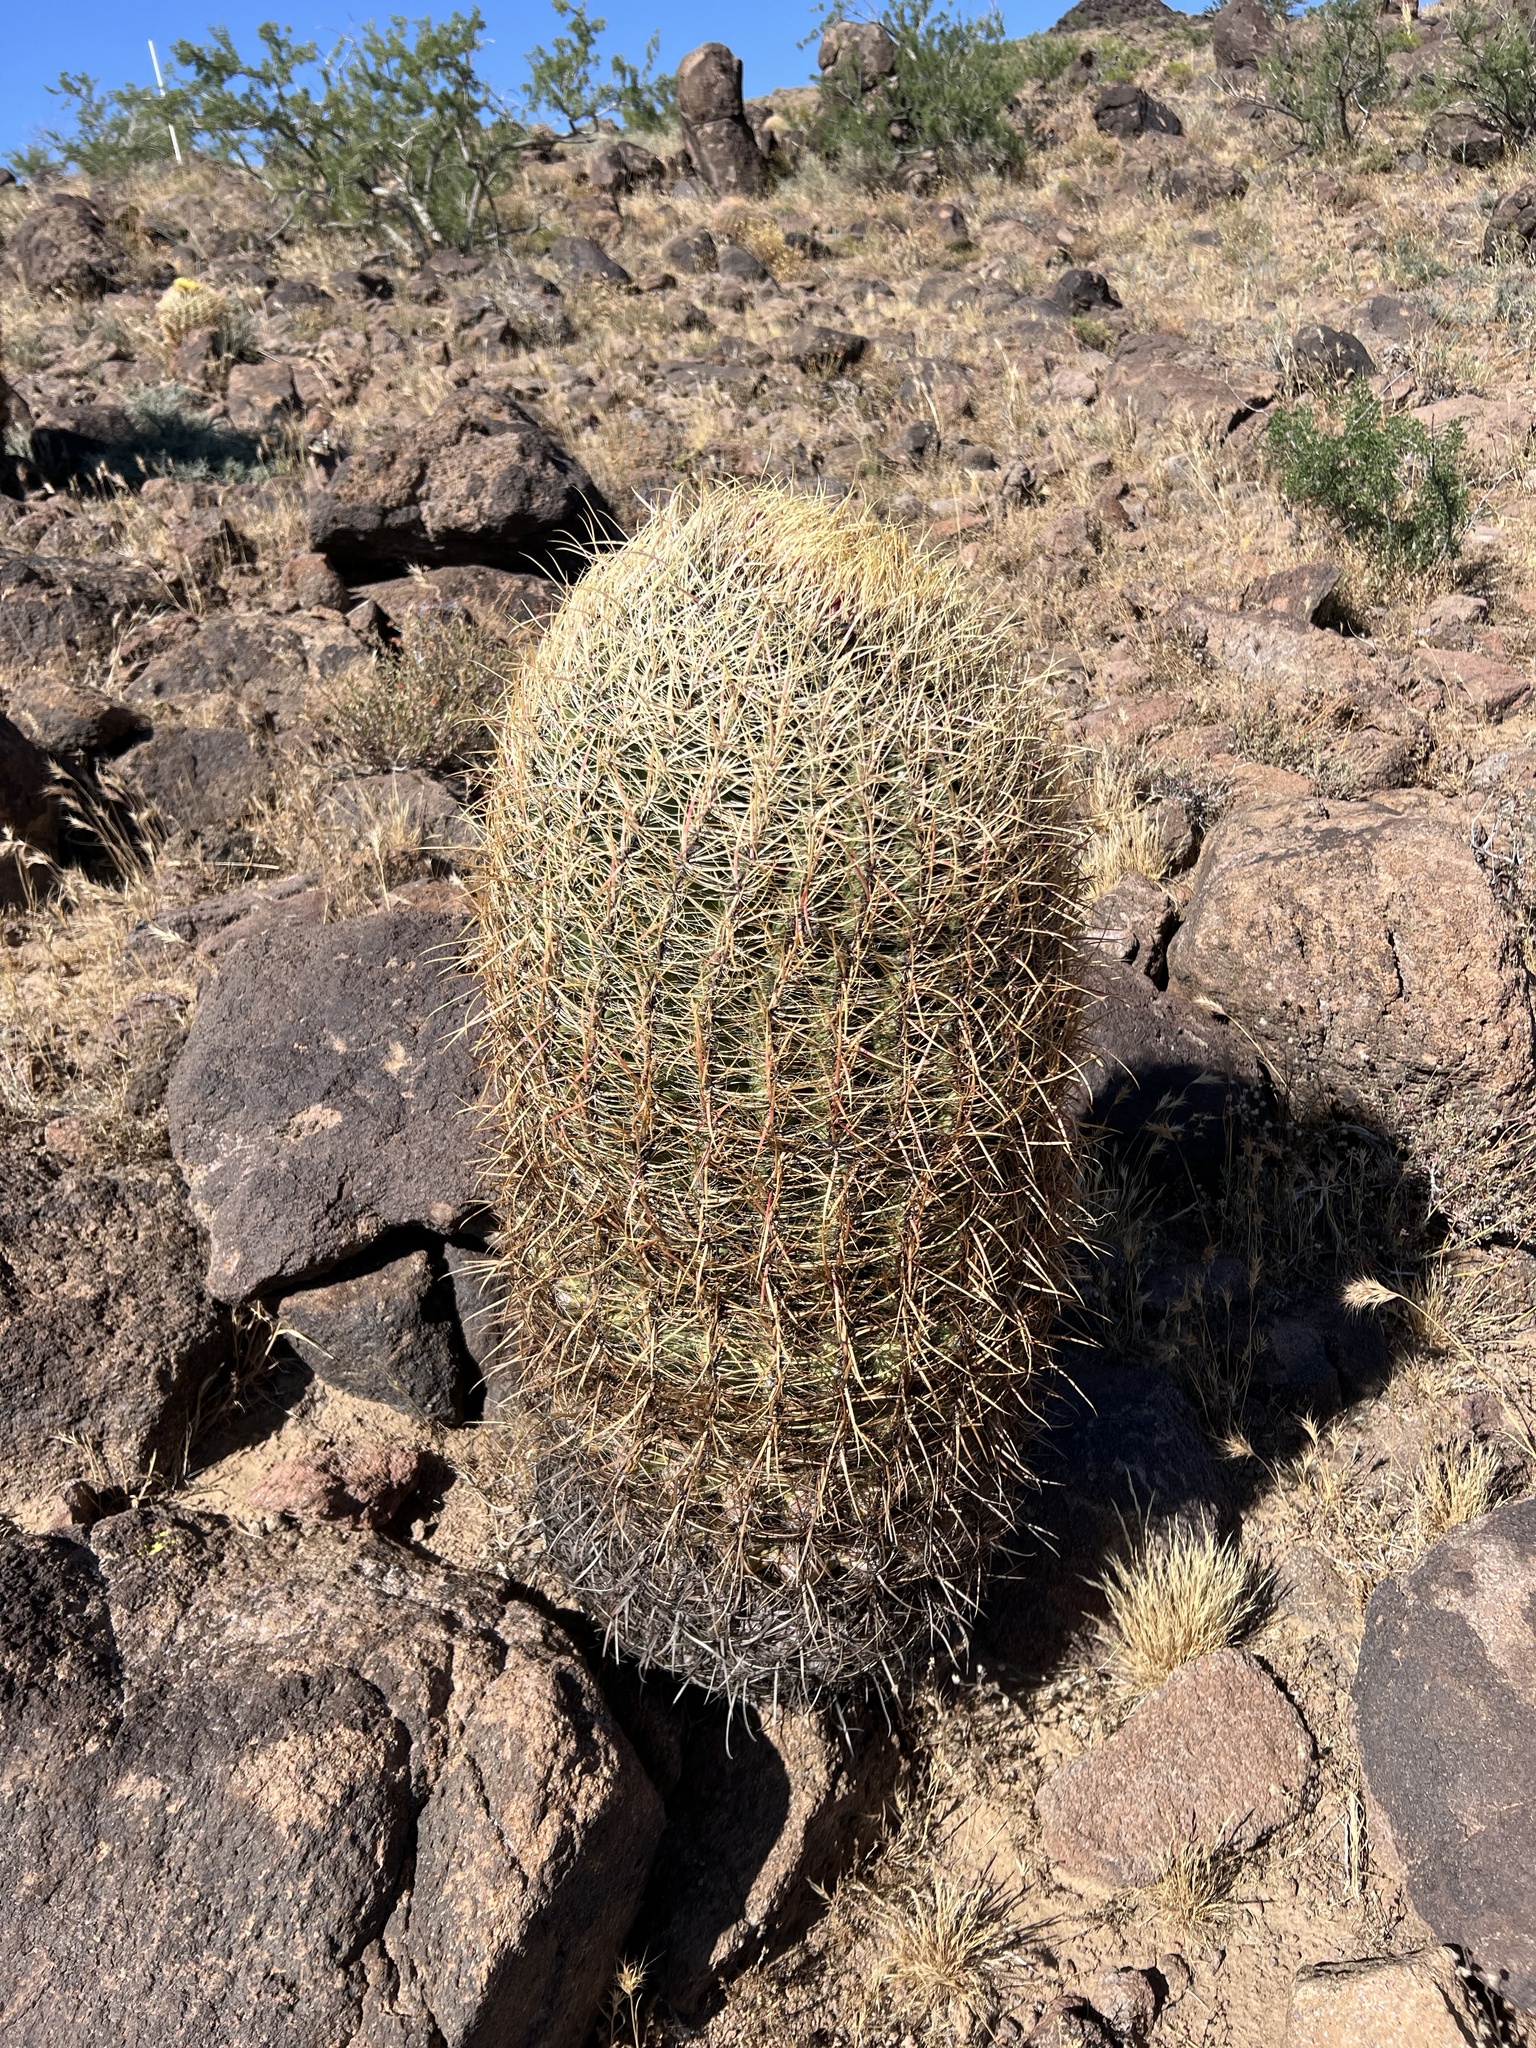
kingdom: Plantae
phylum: Tracheophyta
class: Magnoliopsida
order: Caryophyllales
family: Cactaceae
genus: Ferocactus
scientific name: Ferocactus cylindraceus
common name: California barrel cactus
